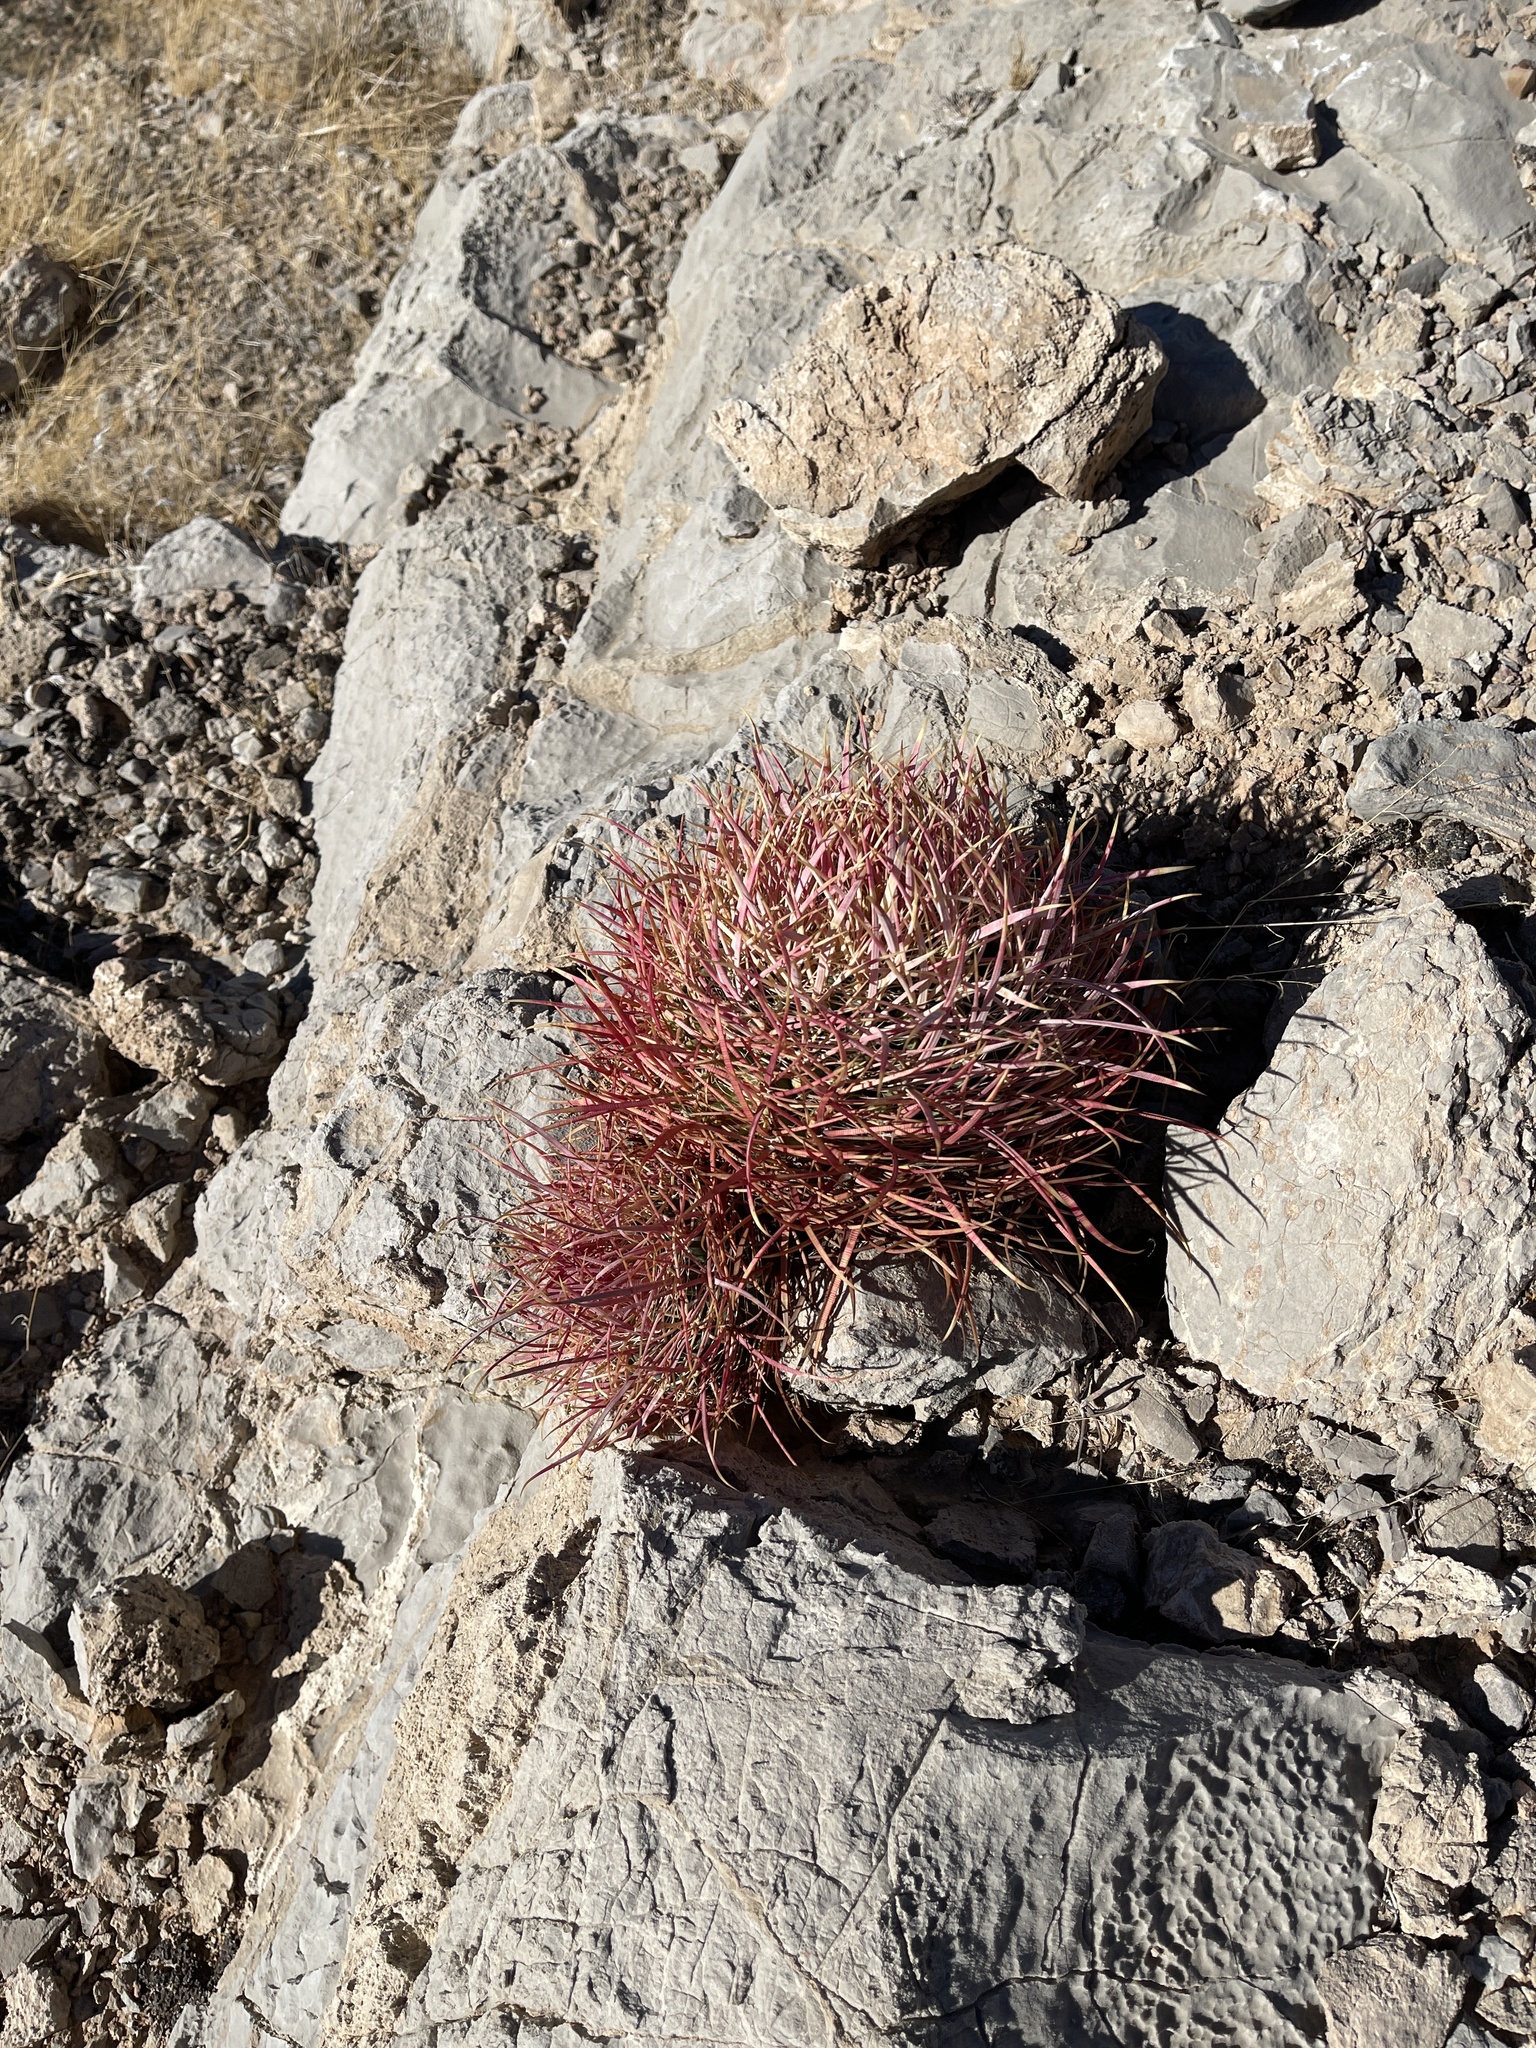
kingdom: Plantae
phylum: Tracheophyta
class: Magnoliopsida
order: Caryophyllales
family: Cactaceae
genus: Ferocactus
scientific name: Ferocactus cylindraceus
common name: California barrel cactus
